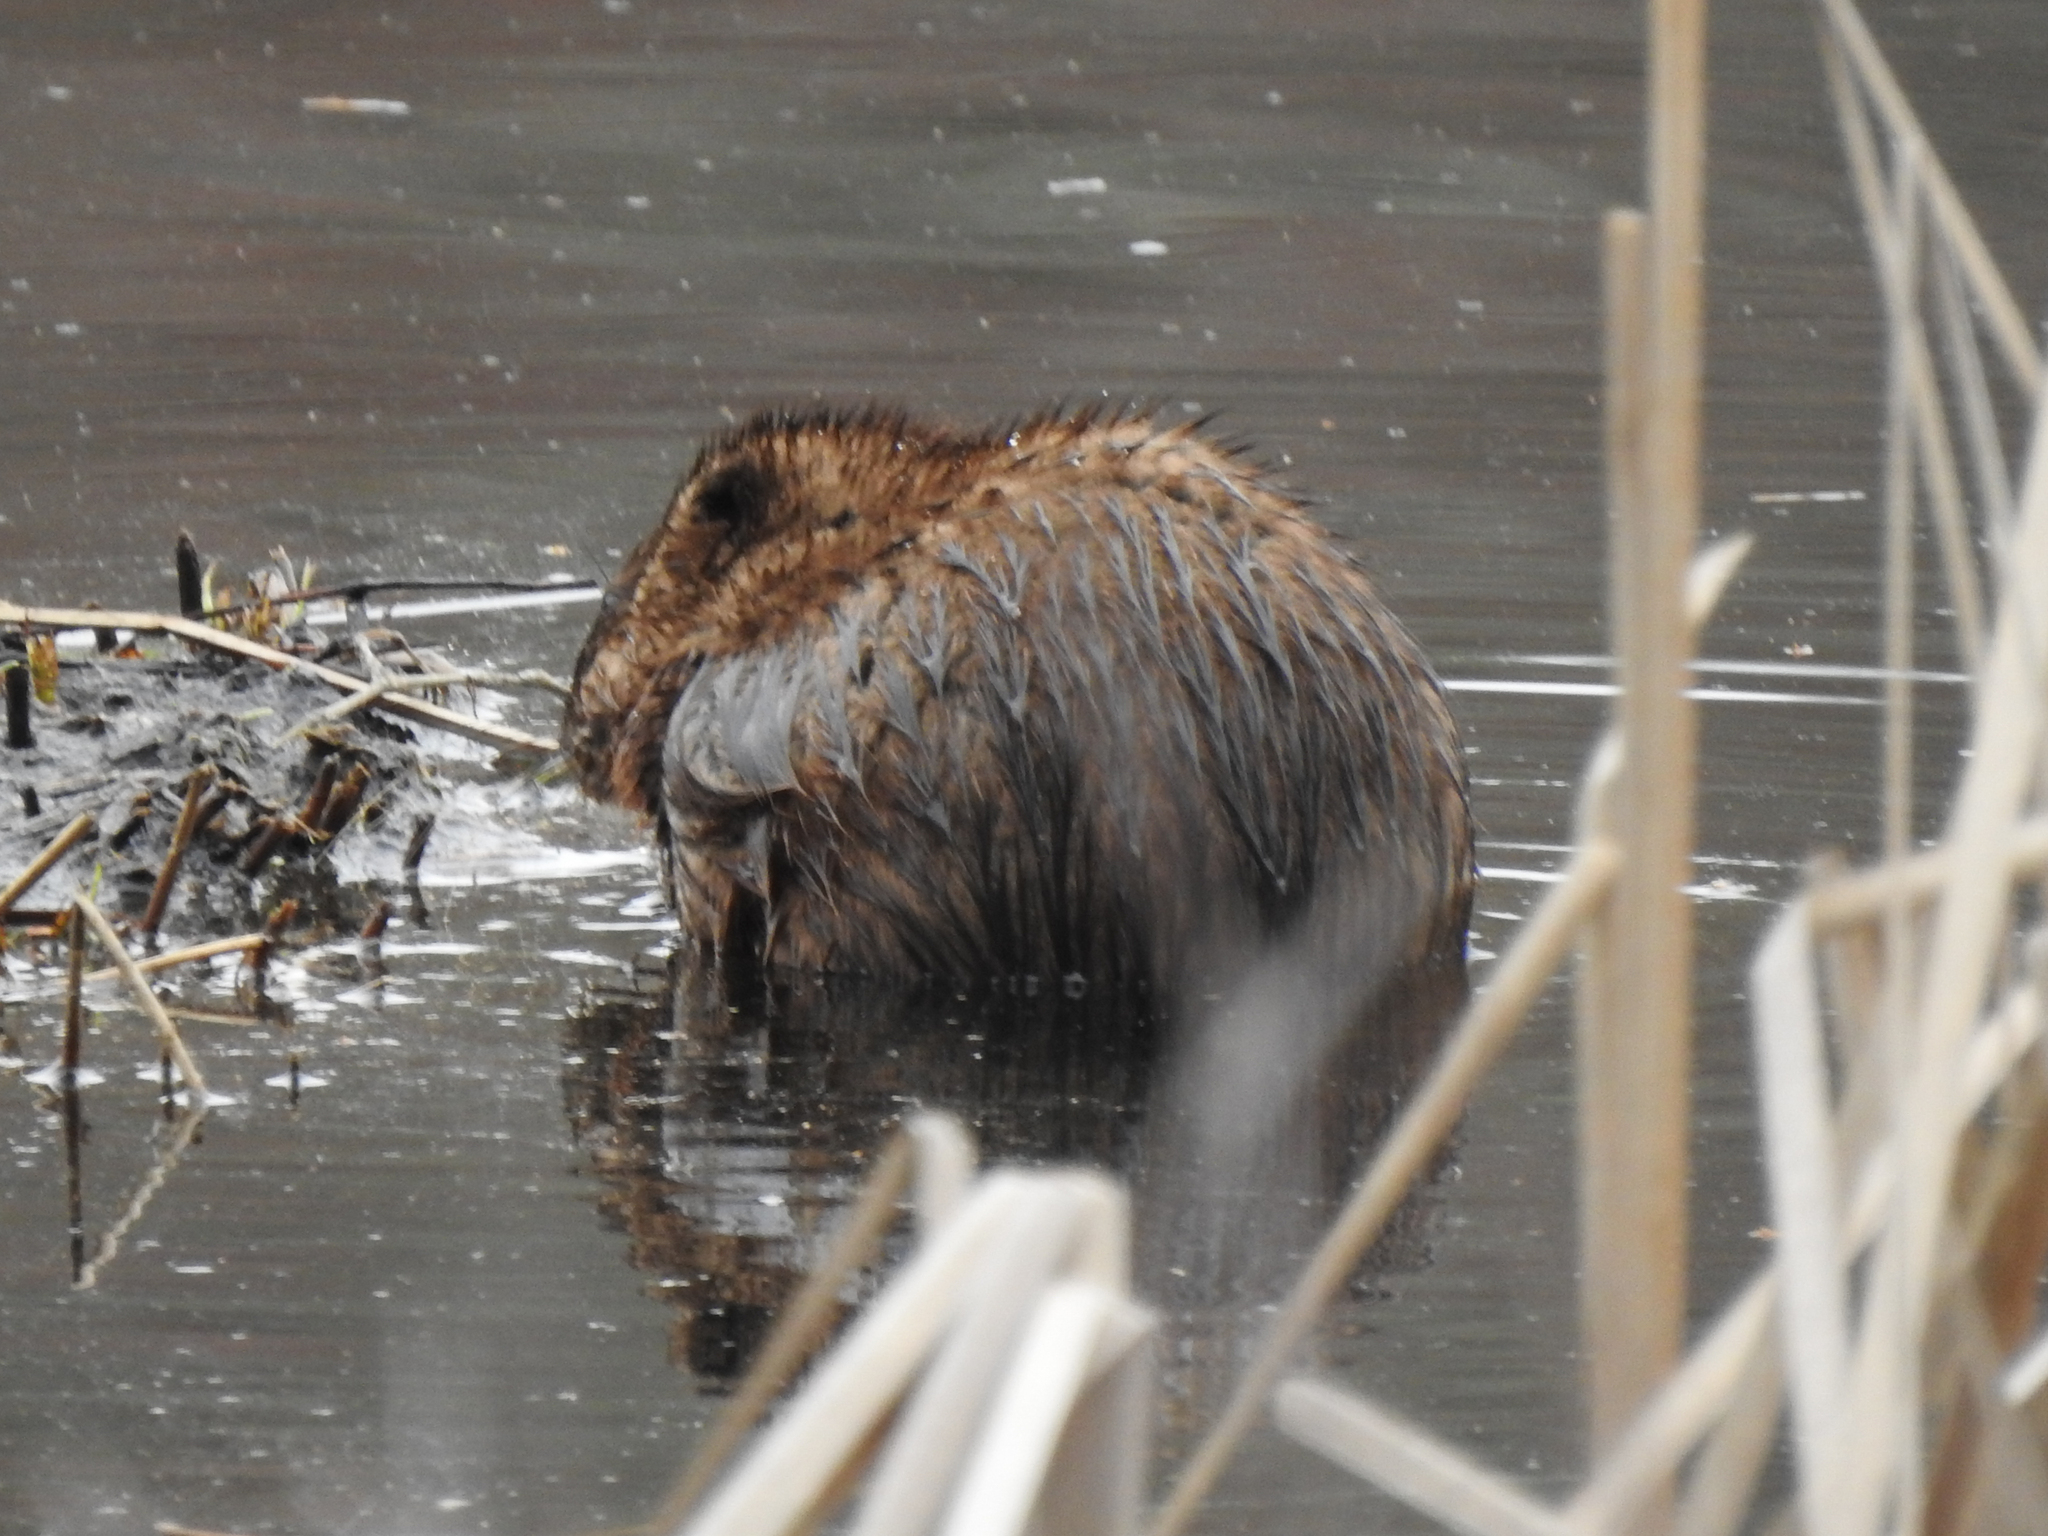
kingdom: Animalia
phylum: Chordata
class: Mammalia
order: Rodentia
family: Cricetidae
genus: Ondatra
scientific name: Ondatra zibethicus
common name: Muskrat
